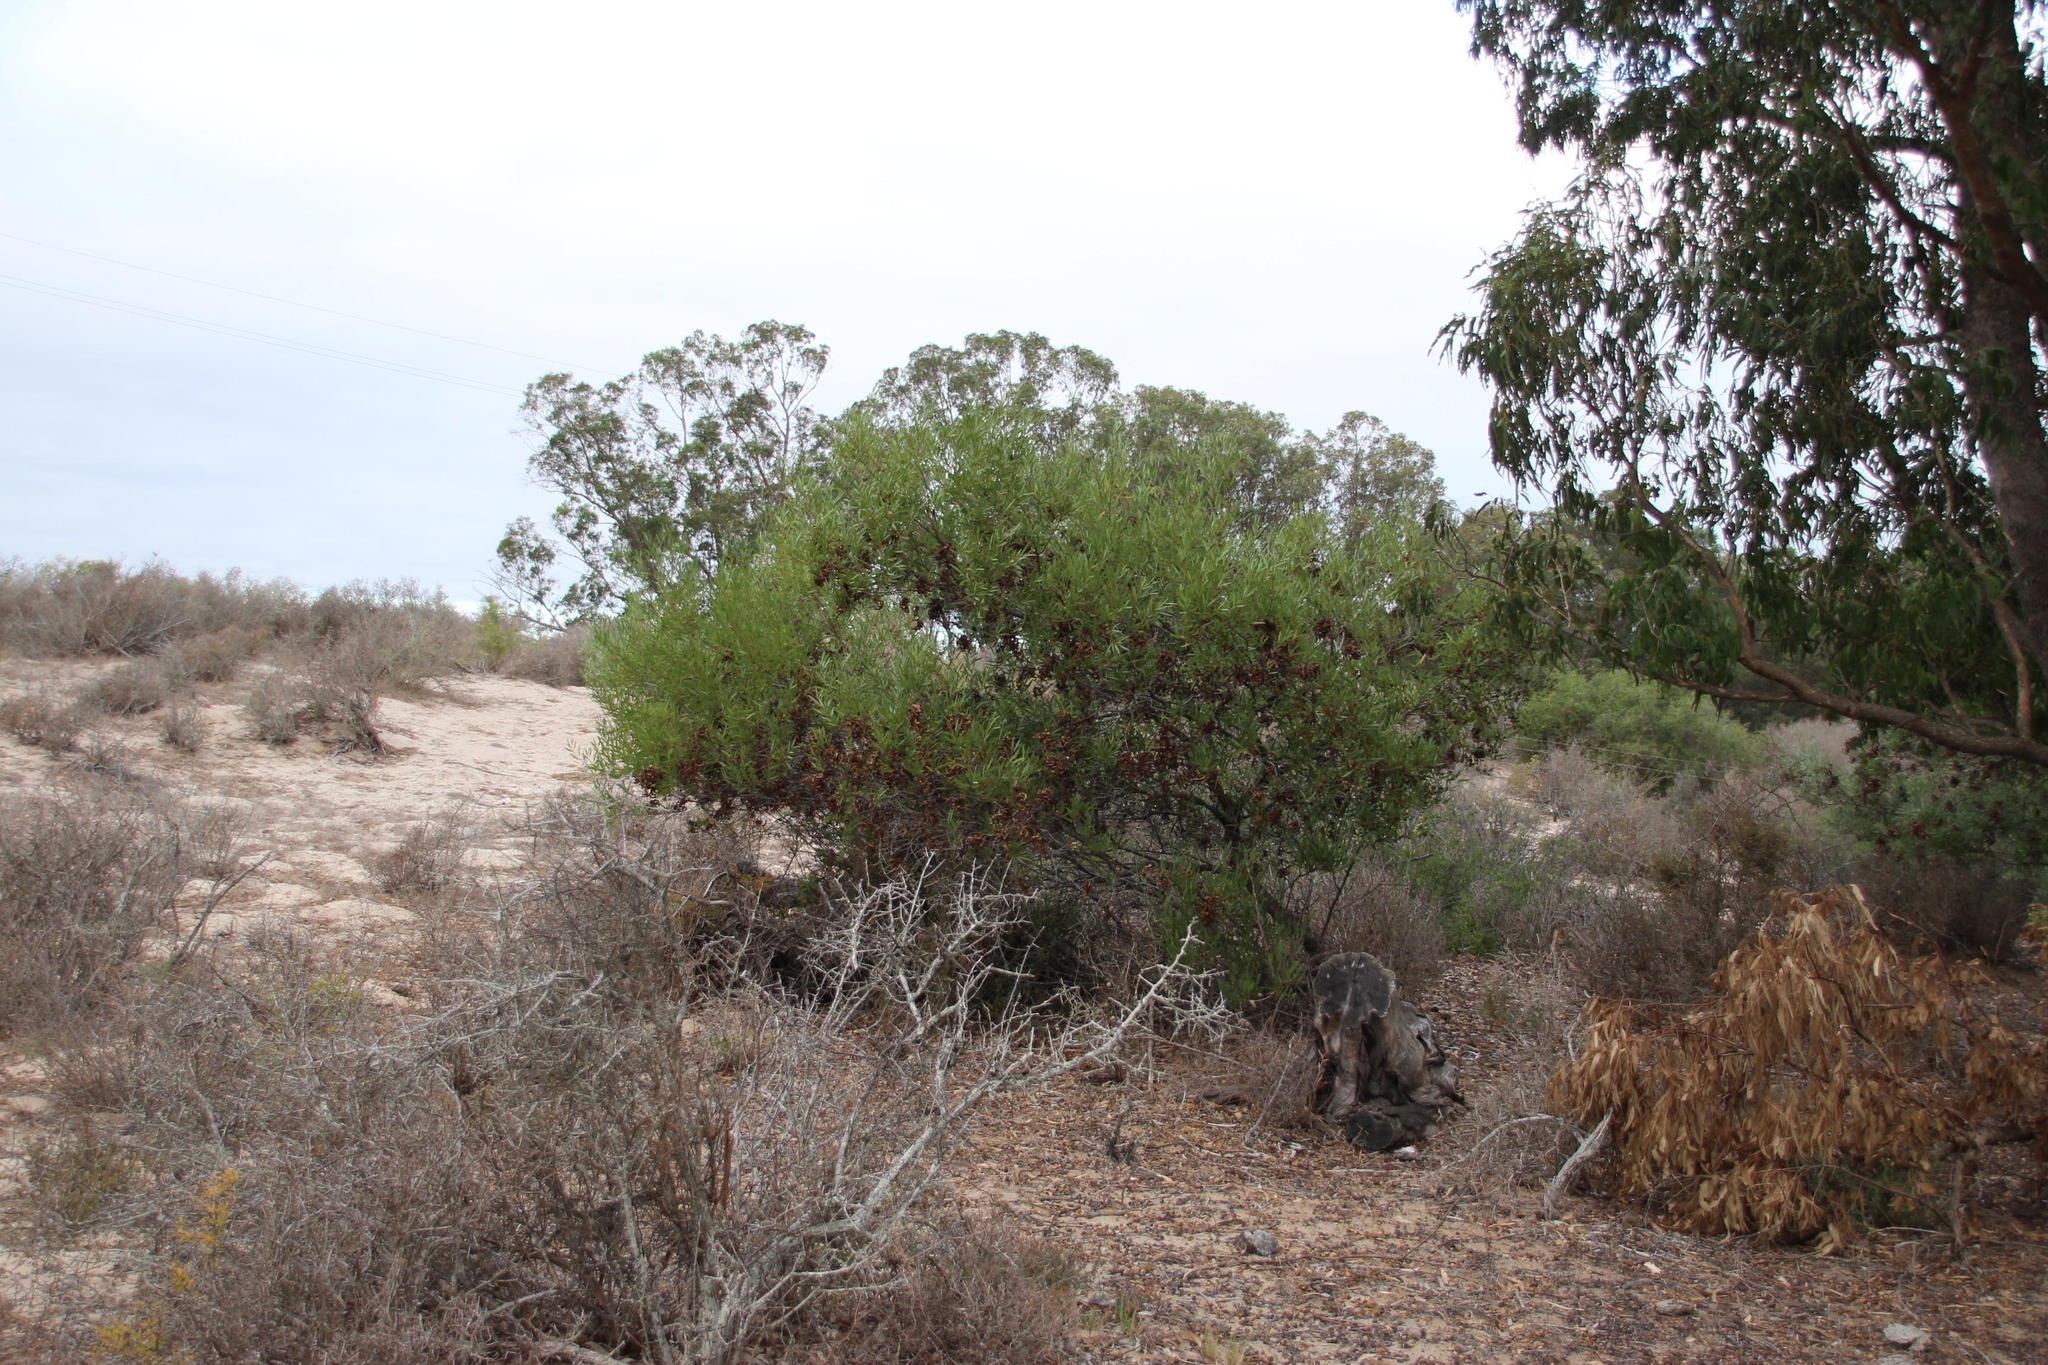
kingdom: Plantae
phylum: Tracheophyta
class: Magnoliopsida
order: Fabales
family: Fabaceae
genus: Acacia
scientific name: Acacia cyclops
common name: Coastal wattle
